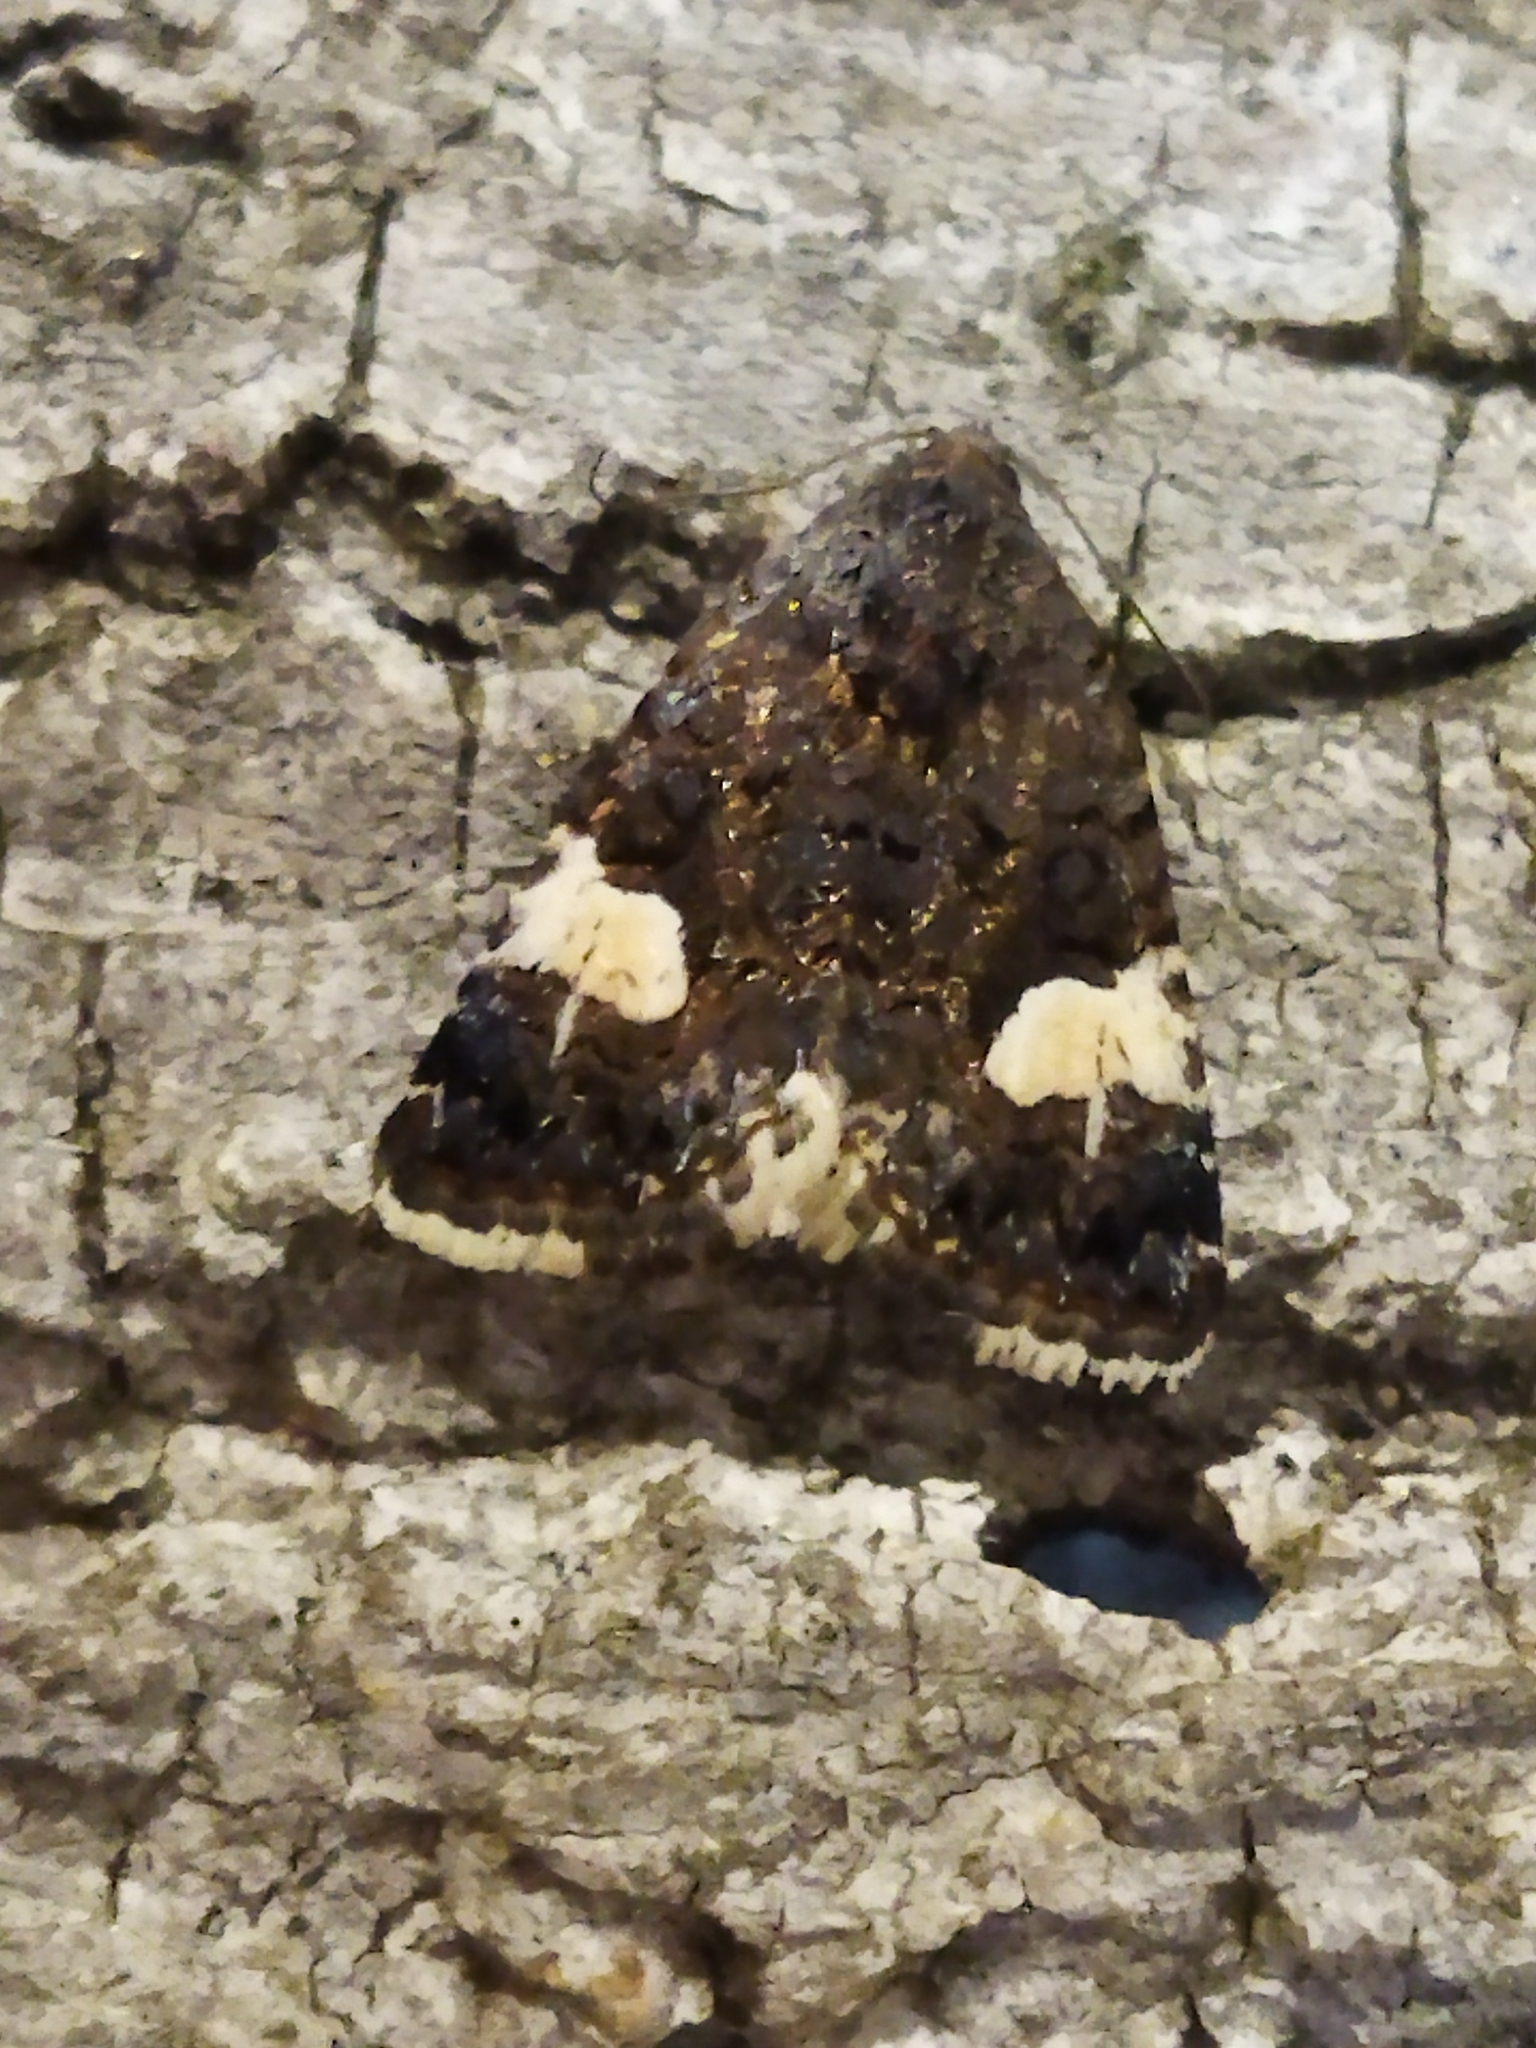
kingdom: Animalia
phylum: Arthropoda
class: Insecta
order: Lepidoptera
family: Erebidae
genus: Tyta
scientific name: Tyta luctuosa
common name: Four-spotted
